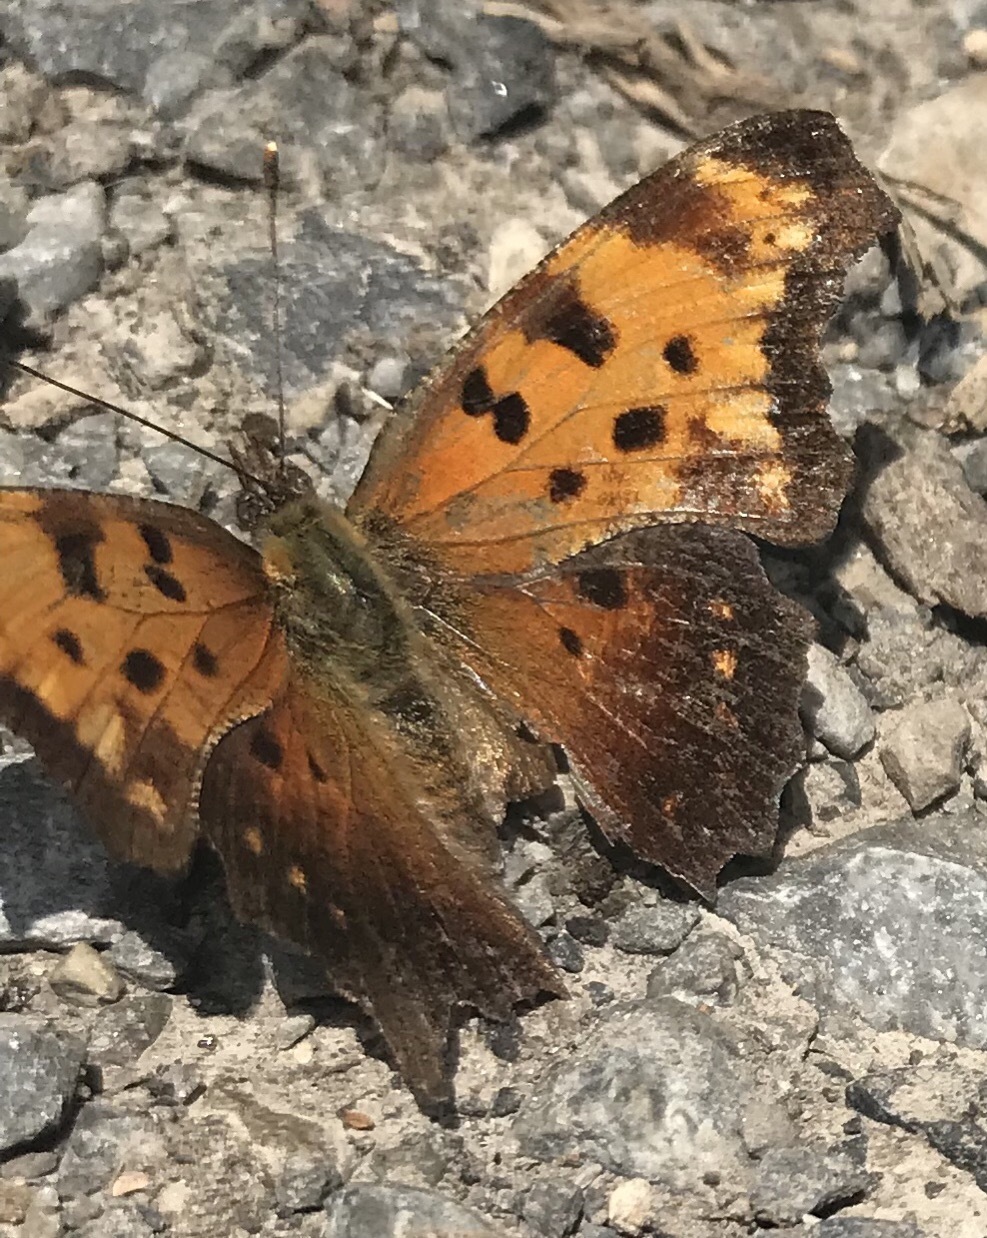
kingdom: Animalia
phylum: Arthropoda
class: Insecta
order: Lepidoptera
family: Nymphalidae
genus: Polygonia
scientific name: Polygonia progne
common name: Gray comma
